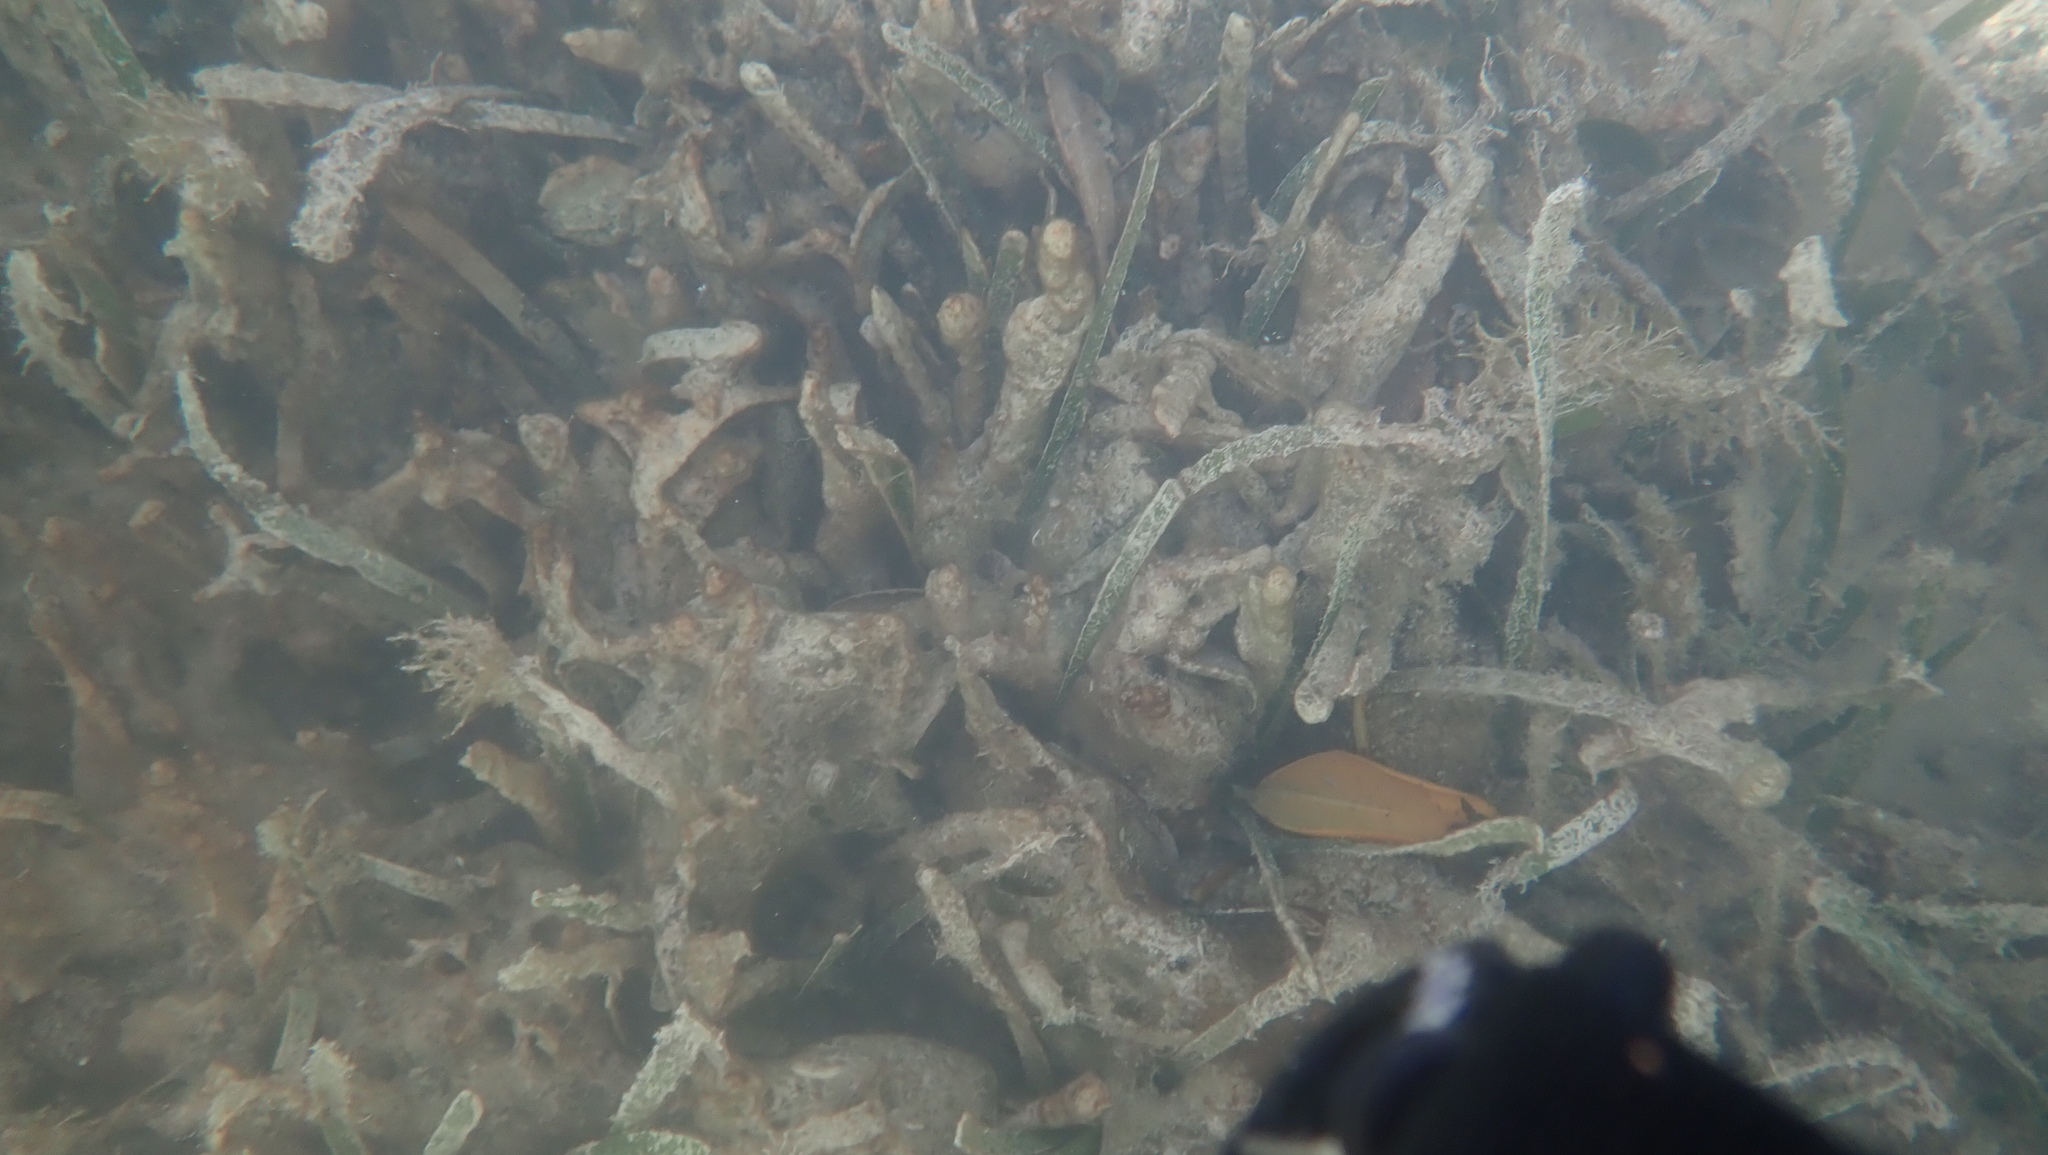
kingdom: Plantae
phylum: Tracheophyta
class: Liliopsida
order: Alismatales
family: Hydrocharitaceae
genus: Thalassia
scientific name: Thalassia testudinum
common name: Species code: tt
